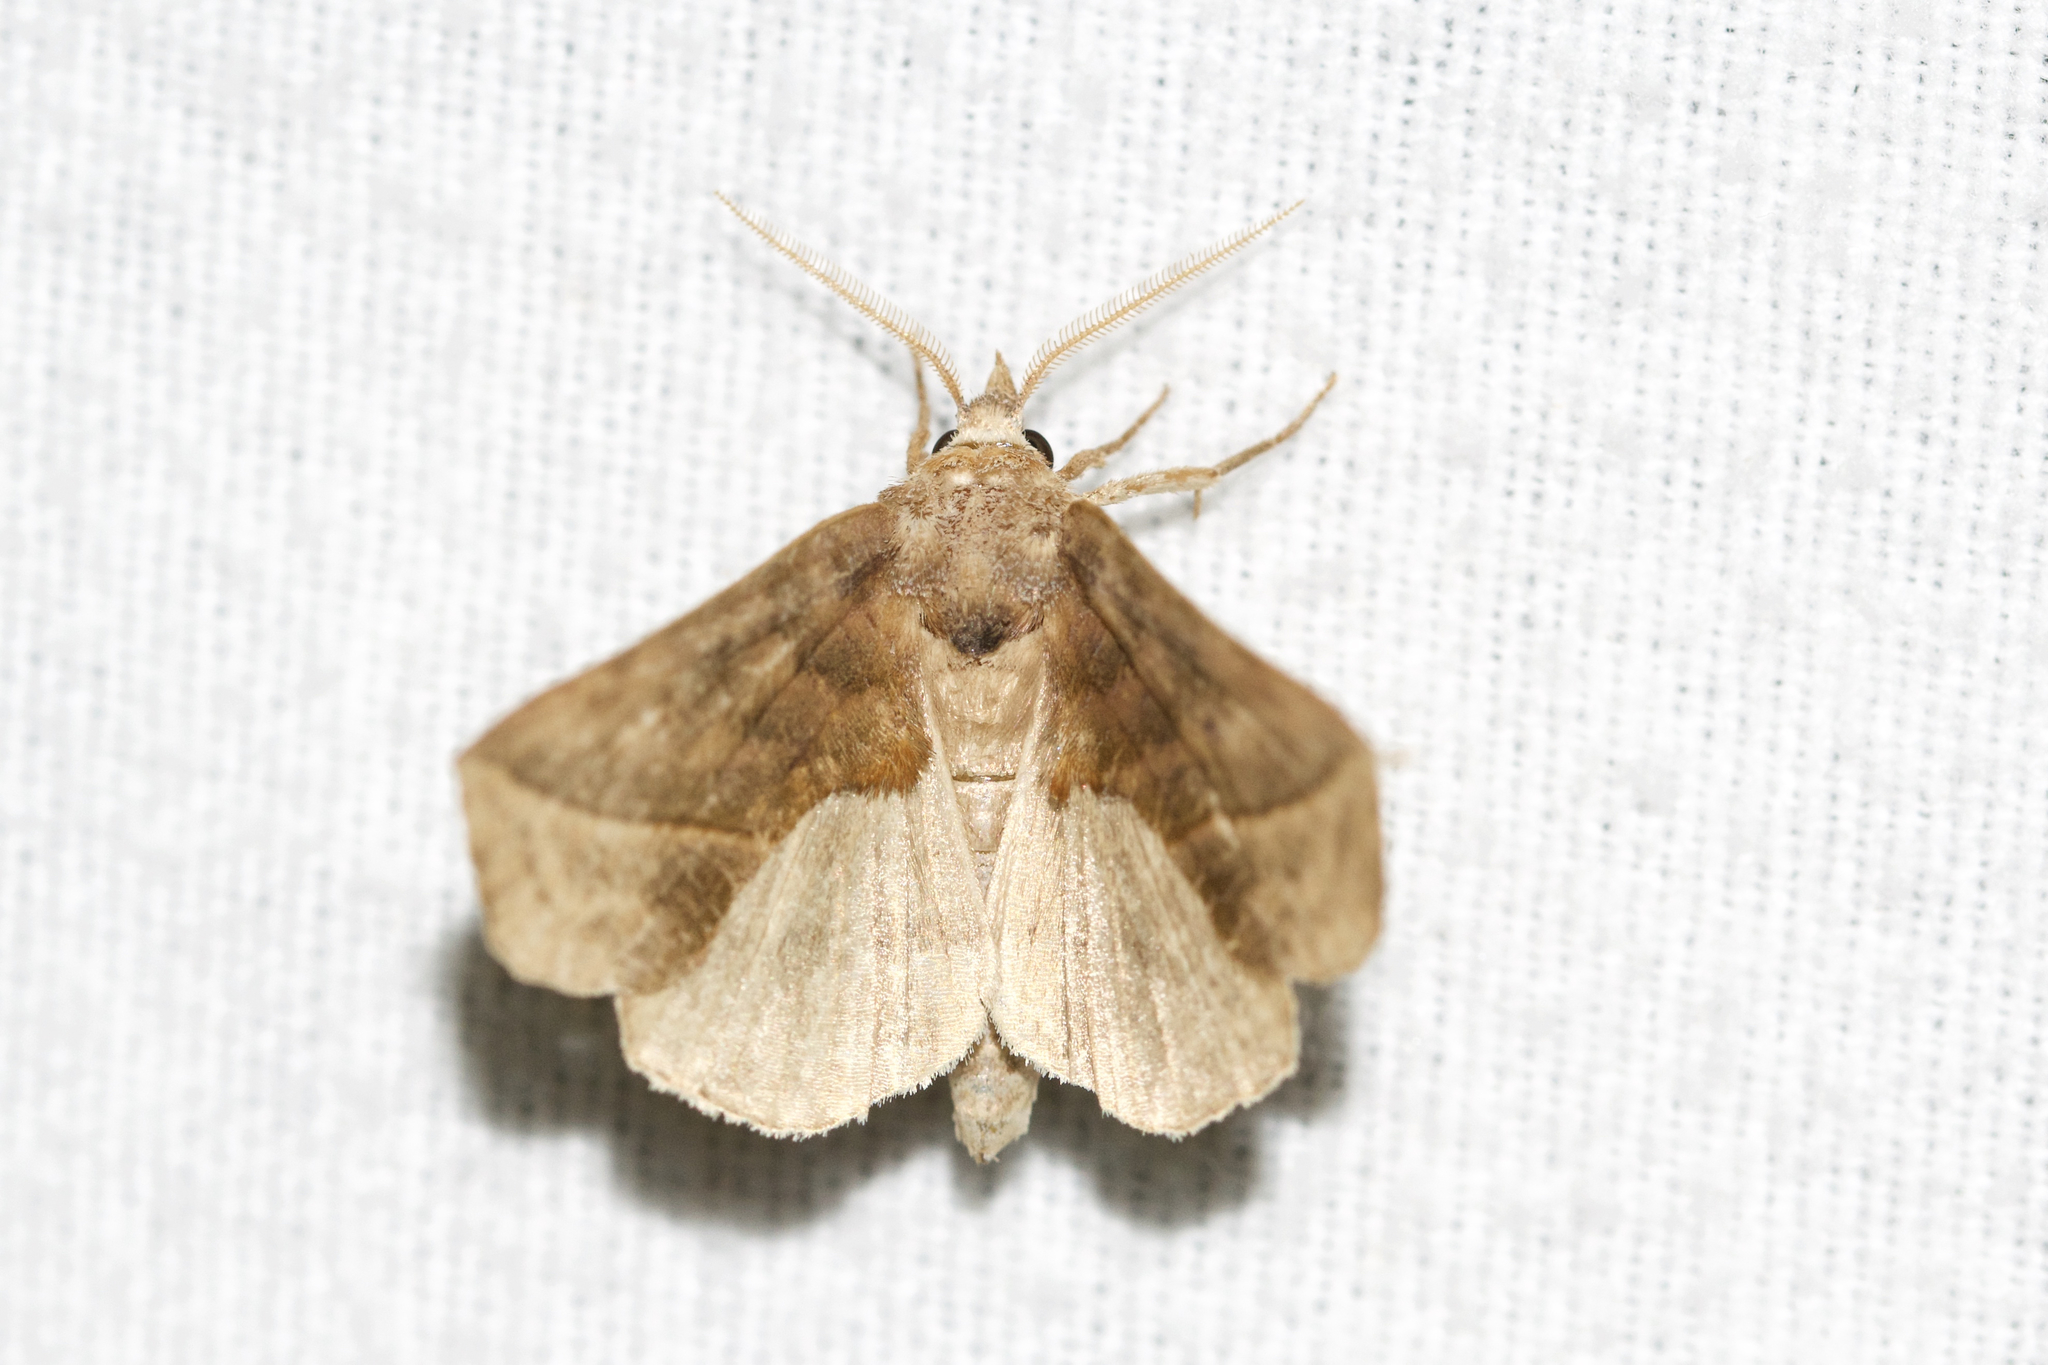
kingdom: Animalia
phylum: Arthropoda
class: Insecta
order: Lepidoptera
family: Erebidae
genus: Calyptra
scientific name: Calyptra canadensis
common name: Canadian owlet
